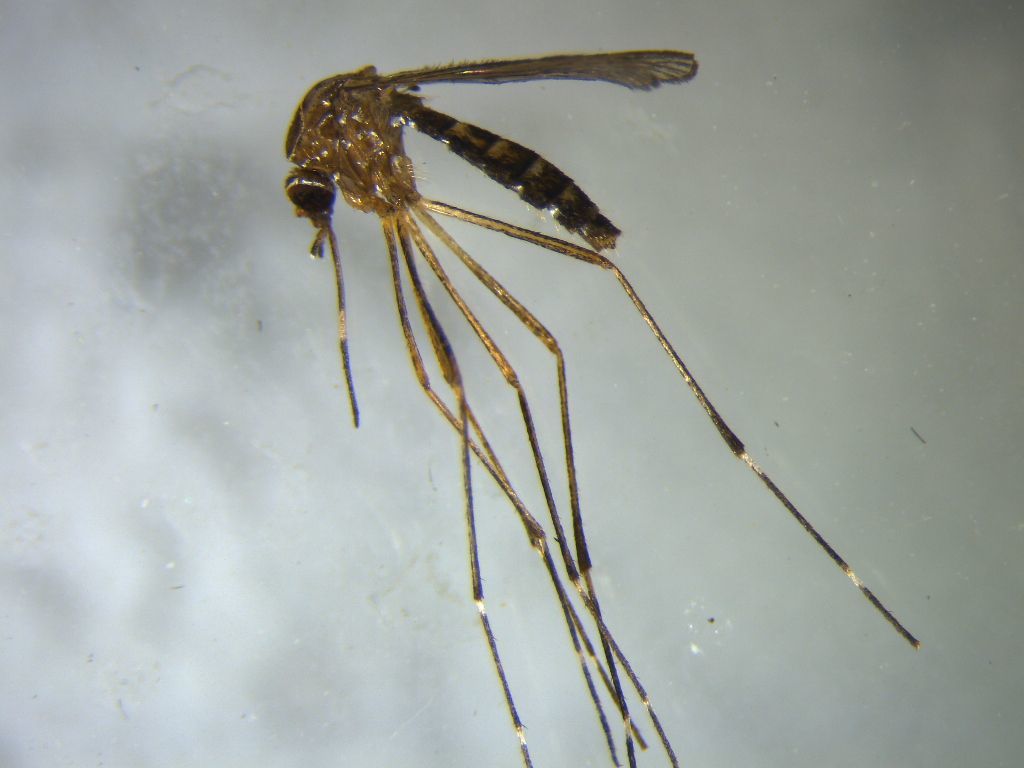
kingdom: Animalia
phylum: Arthropoda
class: Insecta
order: Diptera
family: Culicidae
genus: Aedes
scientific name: Aedes notoscriptus
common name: Australian backyard mosquito
